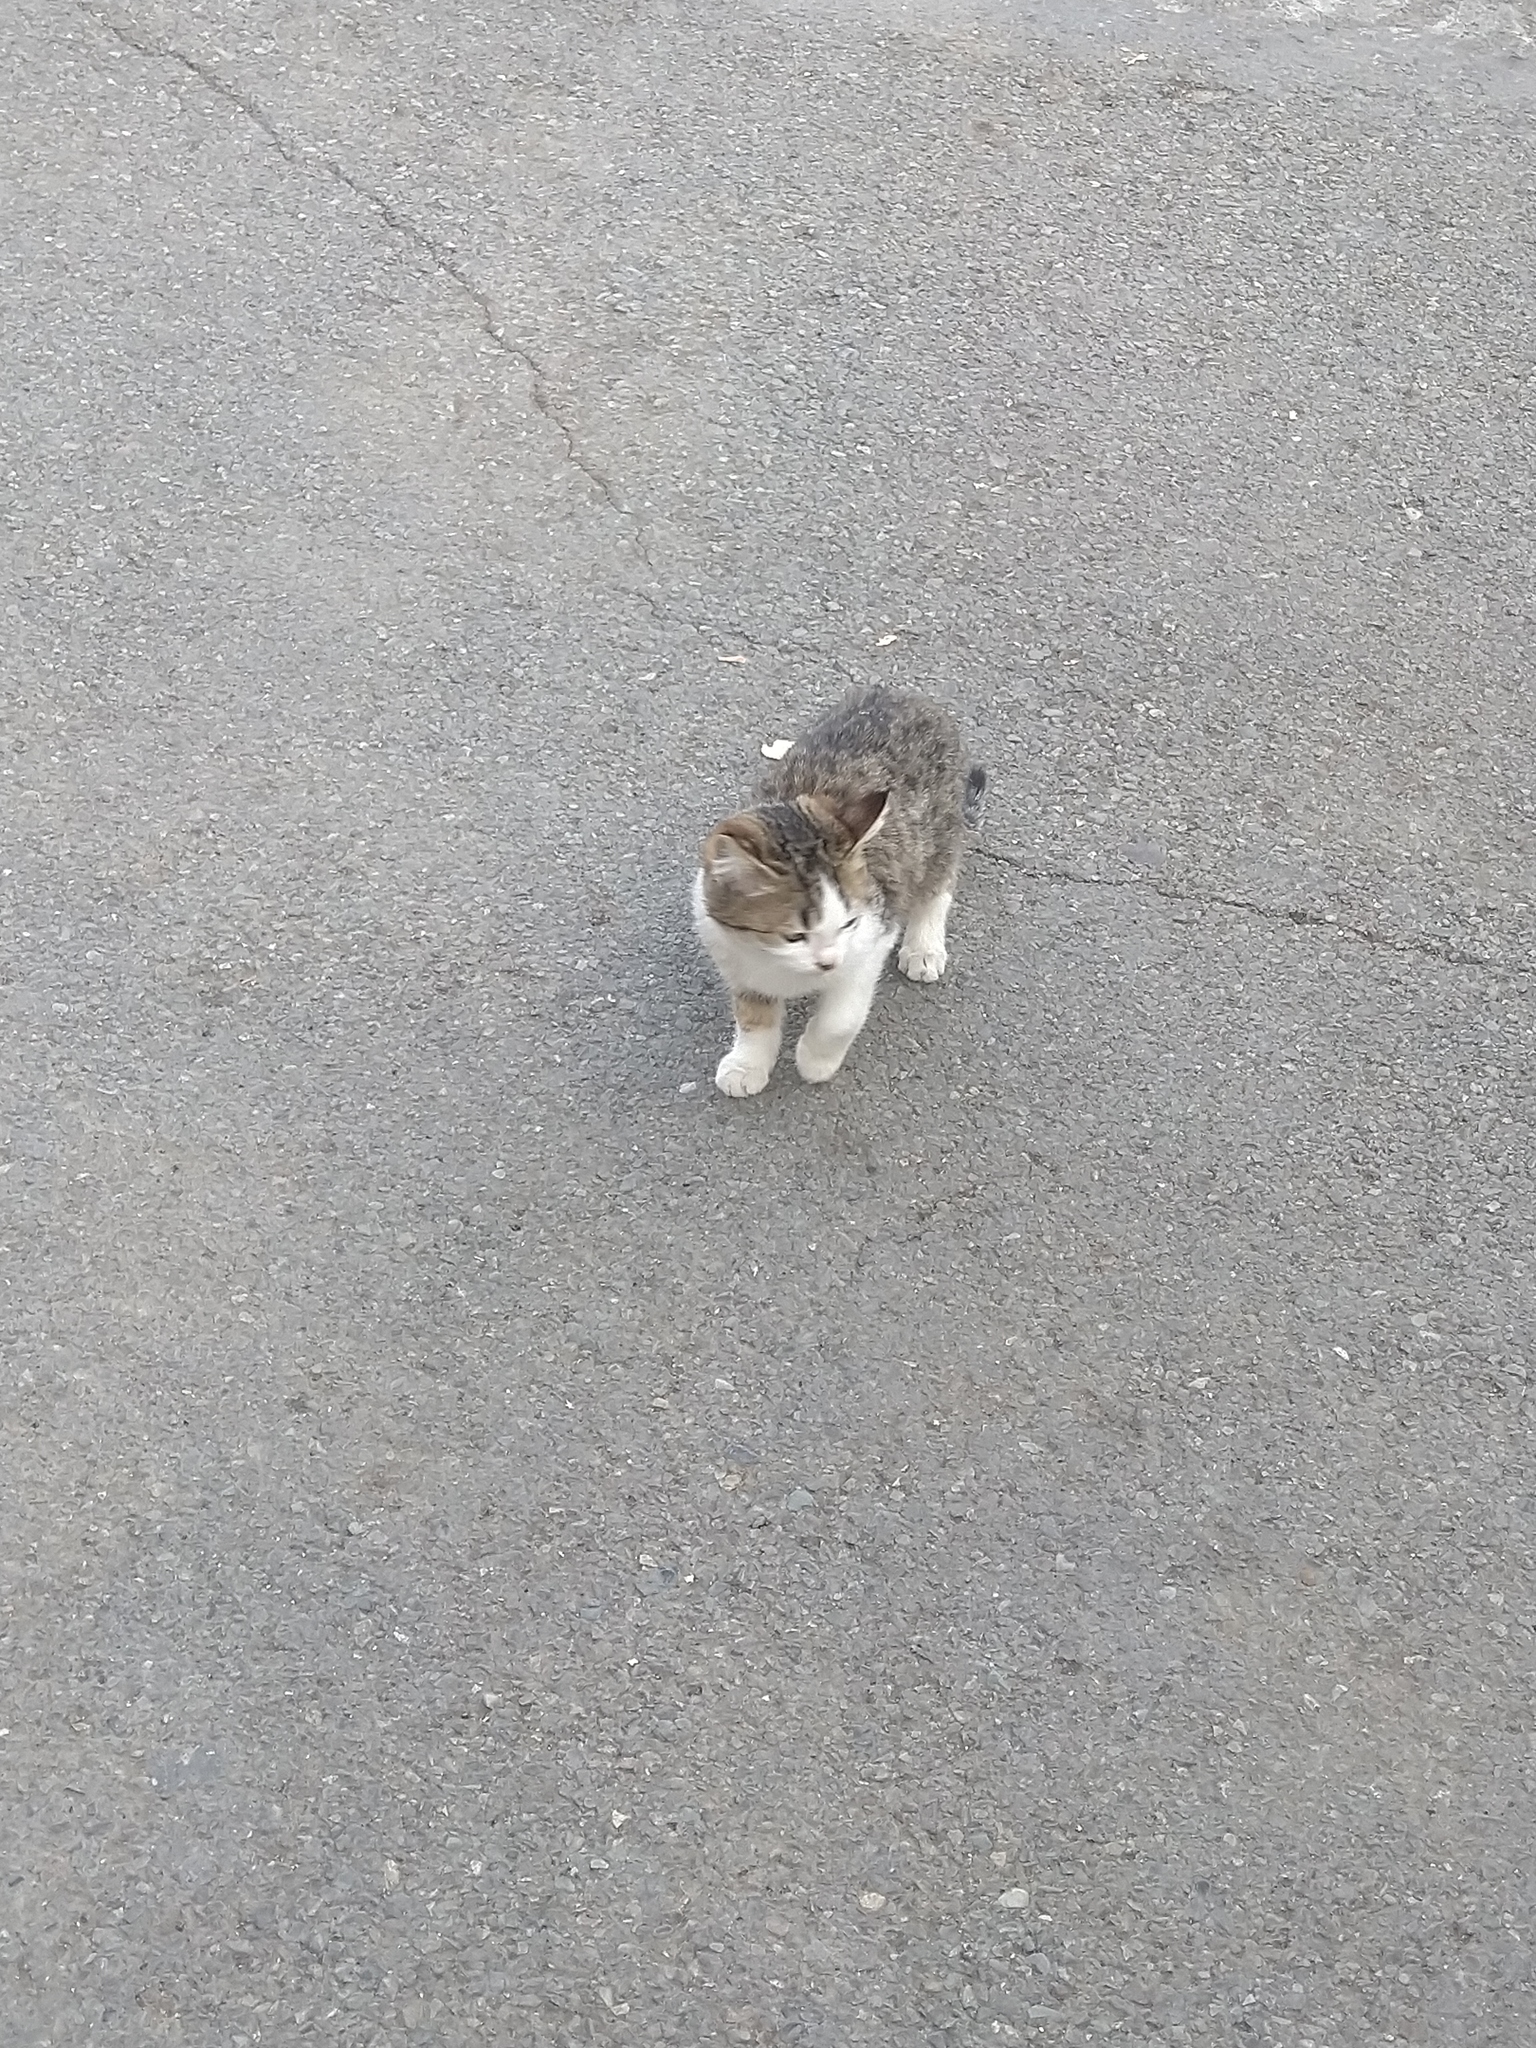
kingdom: Animalia
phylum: Chordata
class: Mammalia
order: Carnivora
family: Felidae
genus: Felis
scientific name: Felis catus
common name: Domestic cat
